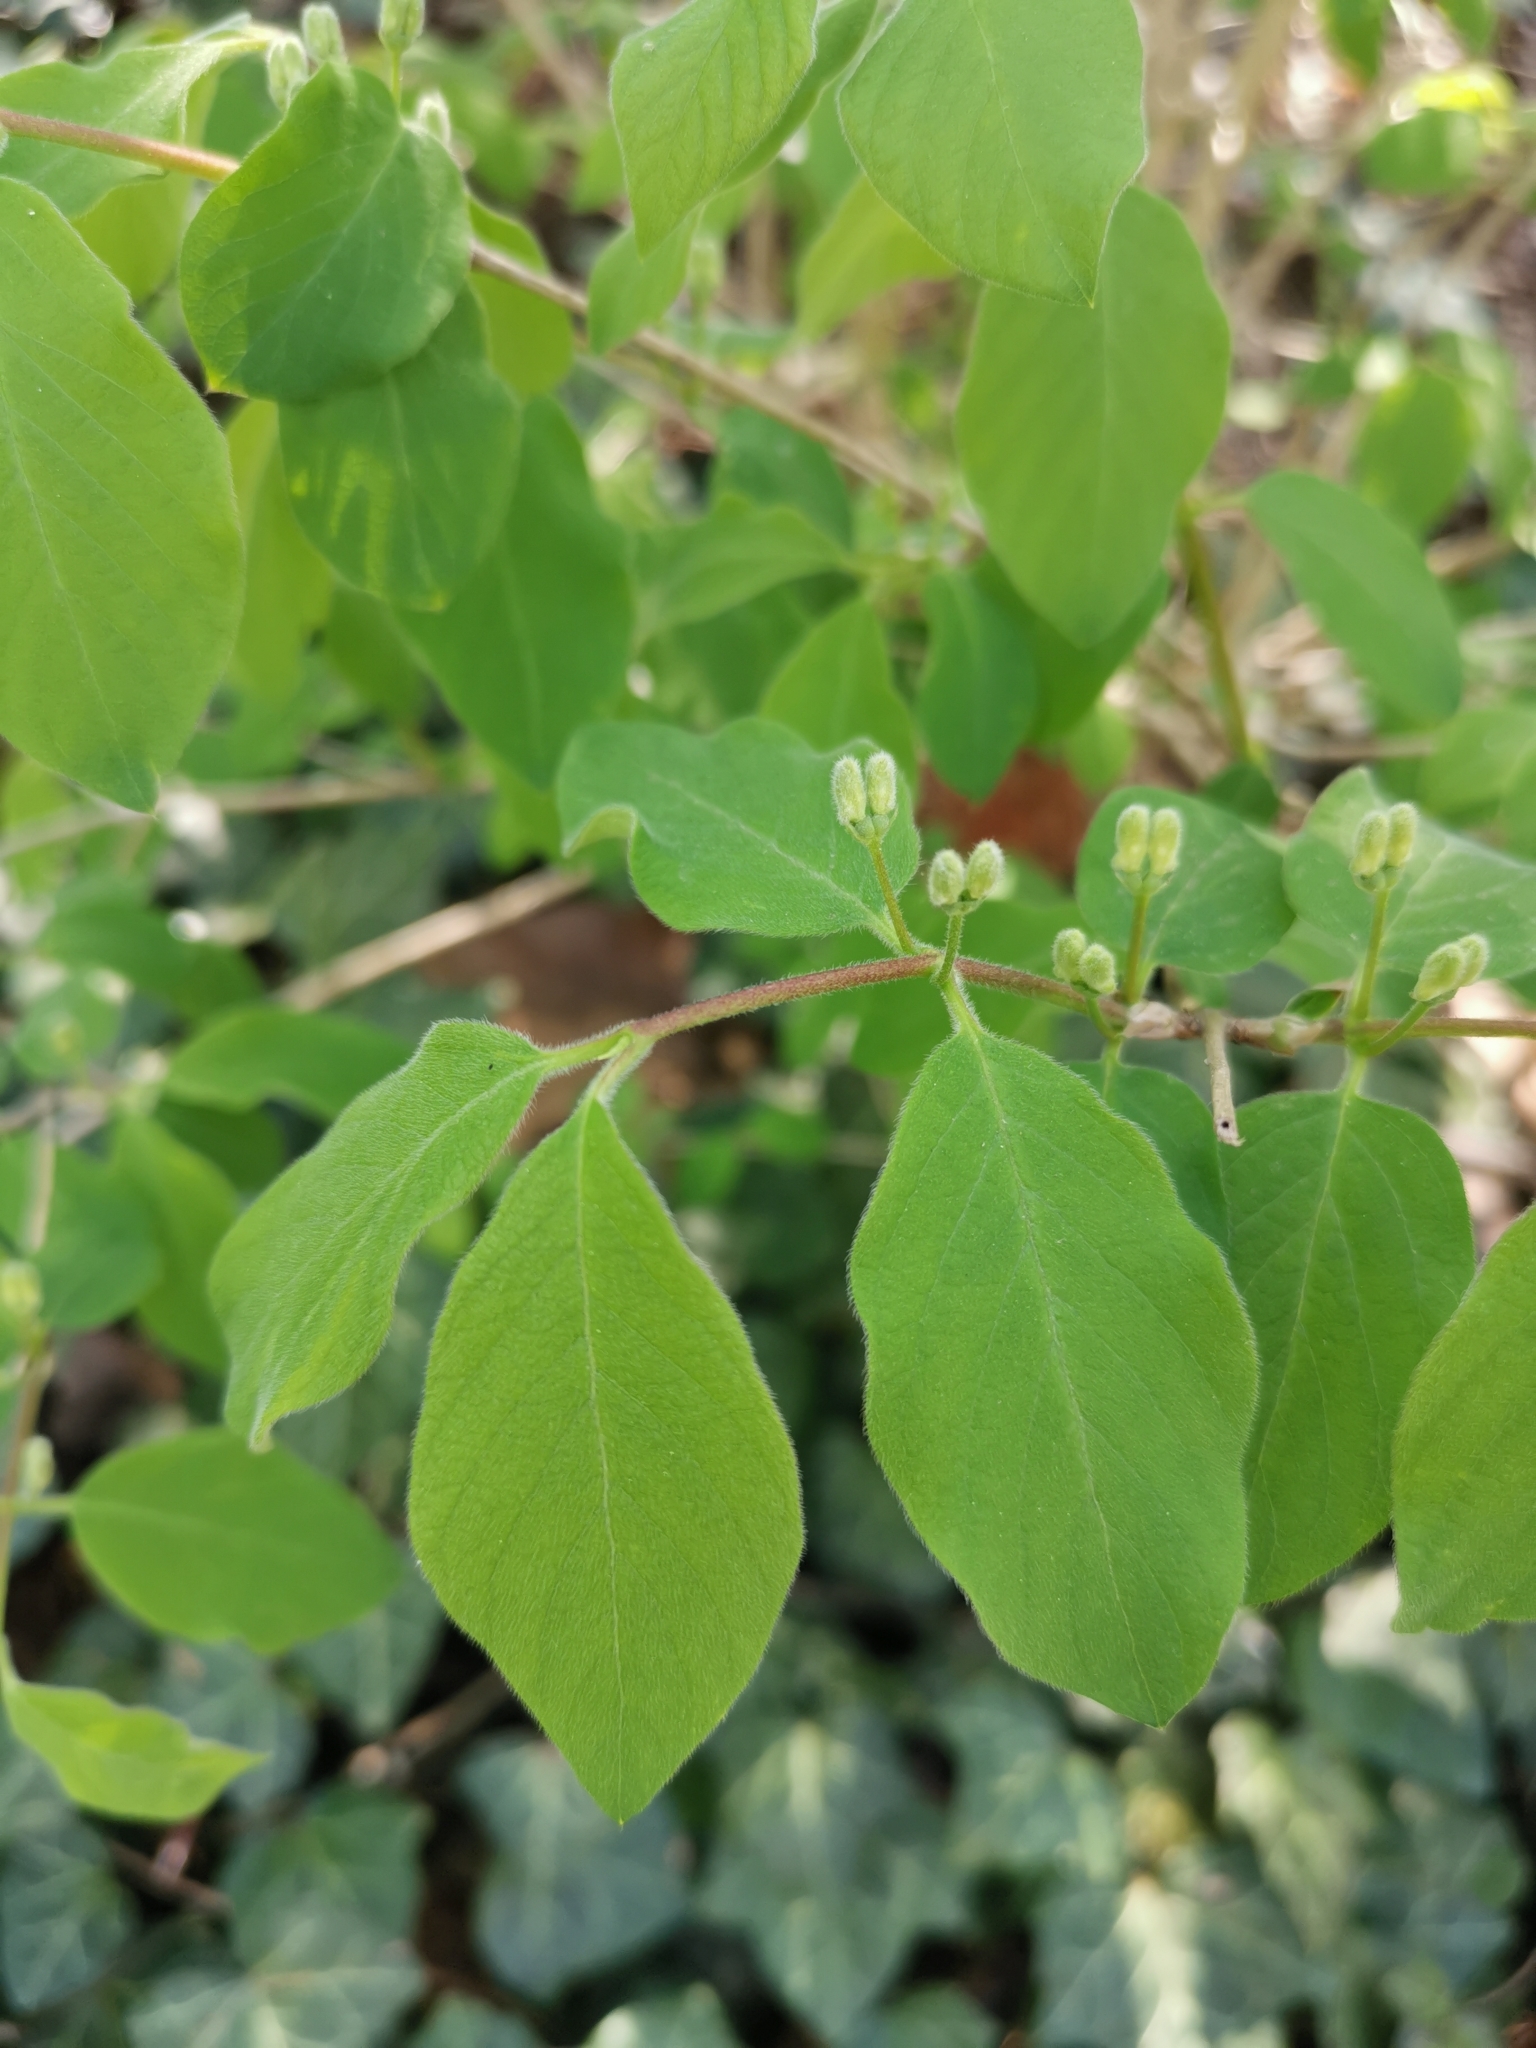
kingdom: Plantae
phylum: Tracheophyta
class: Magnoliopsida
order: Dipsacales
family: Caprifoliaceae
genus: Lonicera
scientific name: Lonicera xylosteum
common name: Fly honeysuckle
